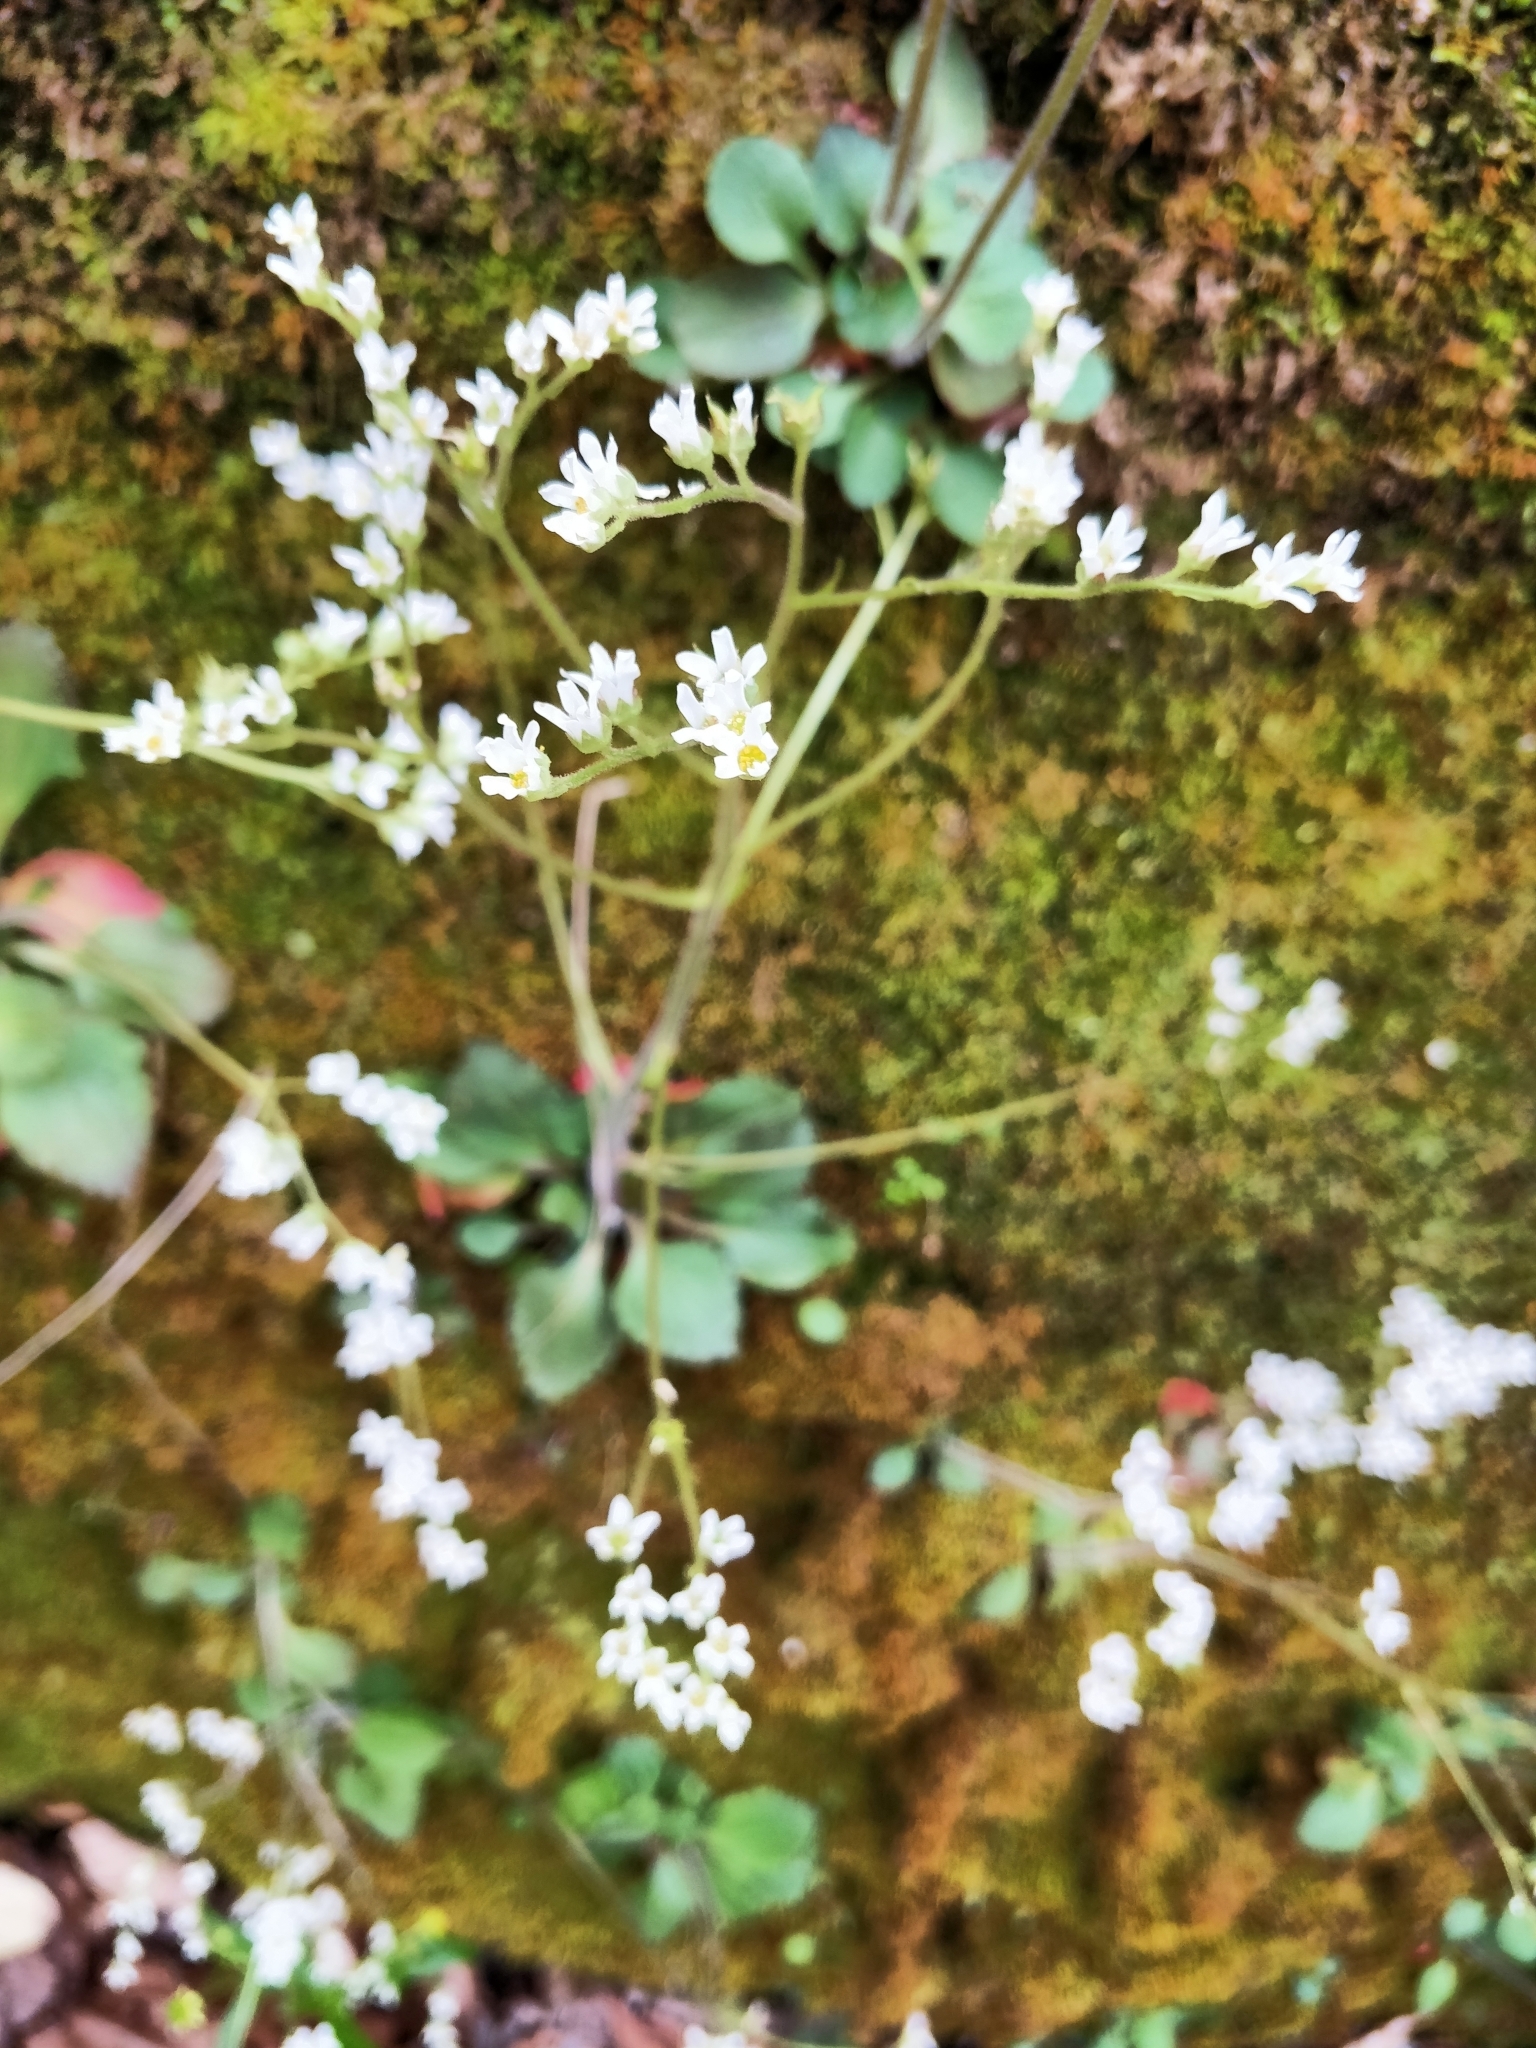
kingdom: Plantae
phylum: Tracheophyta
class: Magnoliopsida
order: Saxifragales
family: Saxifragaceae
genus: Micranthes
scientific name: Micranthes virginiensis
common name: Early saxifrage
